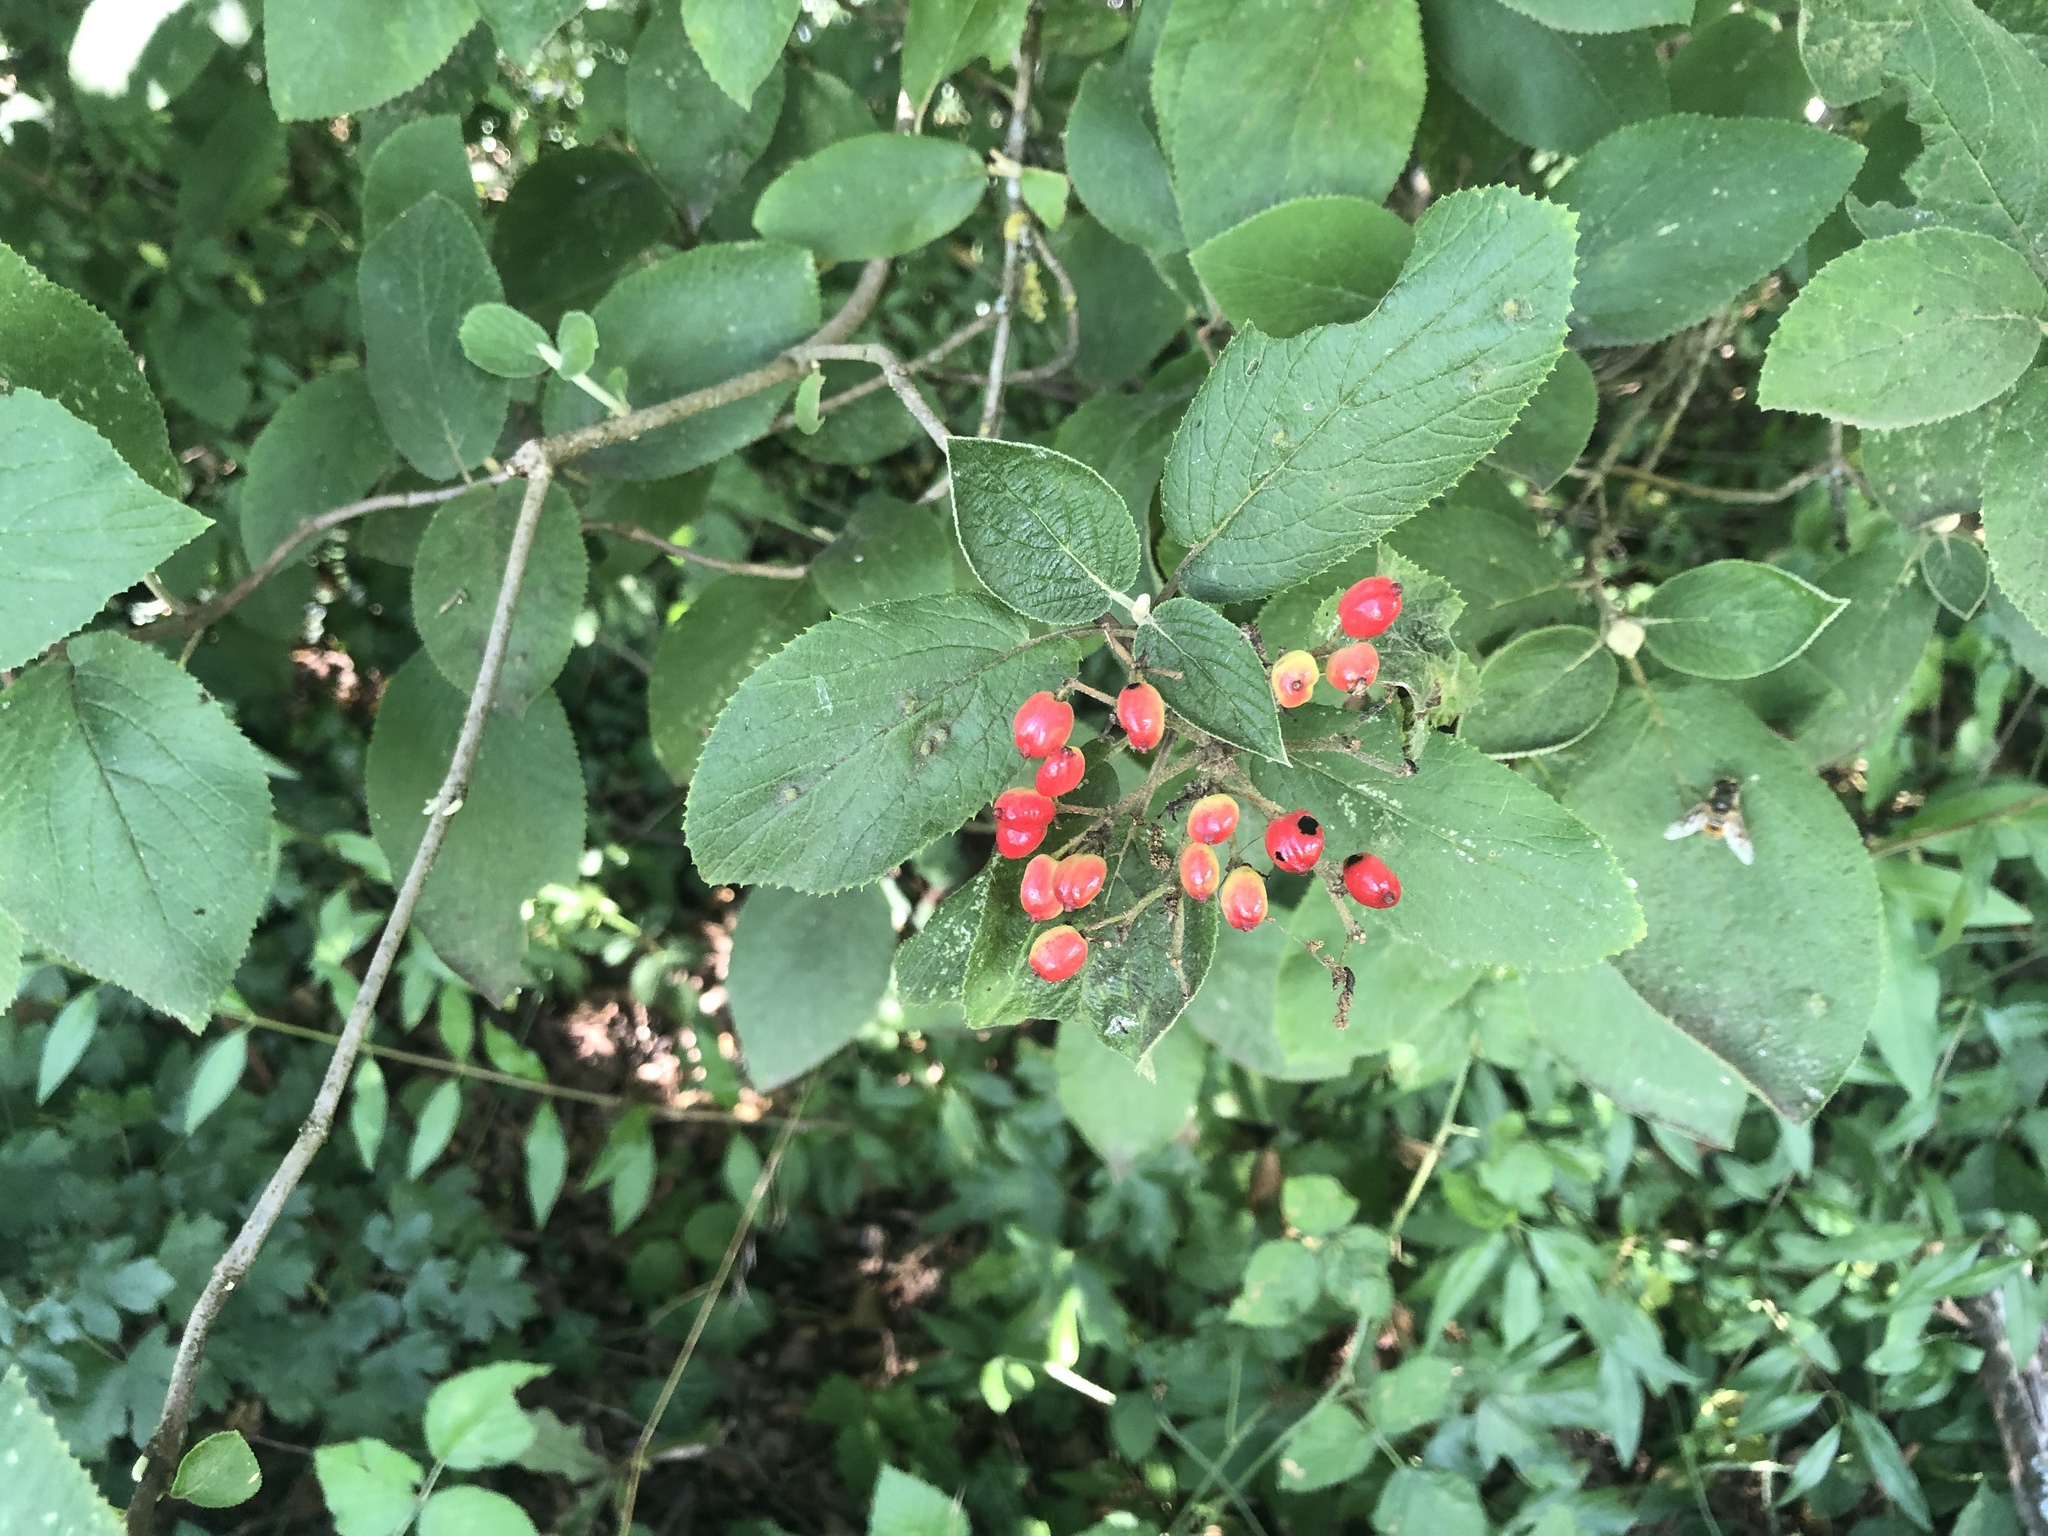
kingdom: Plantae
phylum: Tracheophyta
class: Magnoliopsida
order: Dipsacales
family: Viburnaceae
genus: Viburnum
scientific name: Viburnum lantana
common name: Wayfaring tree
